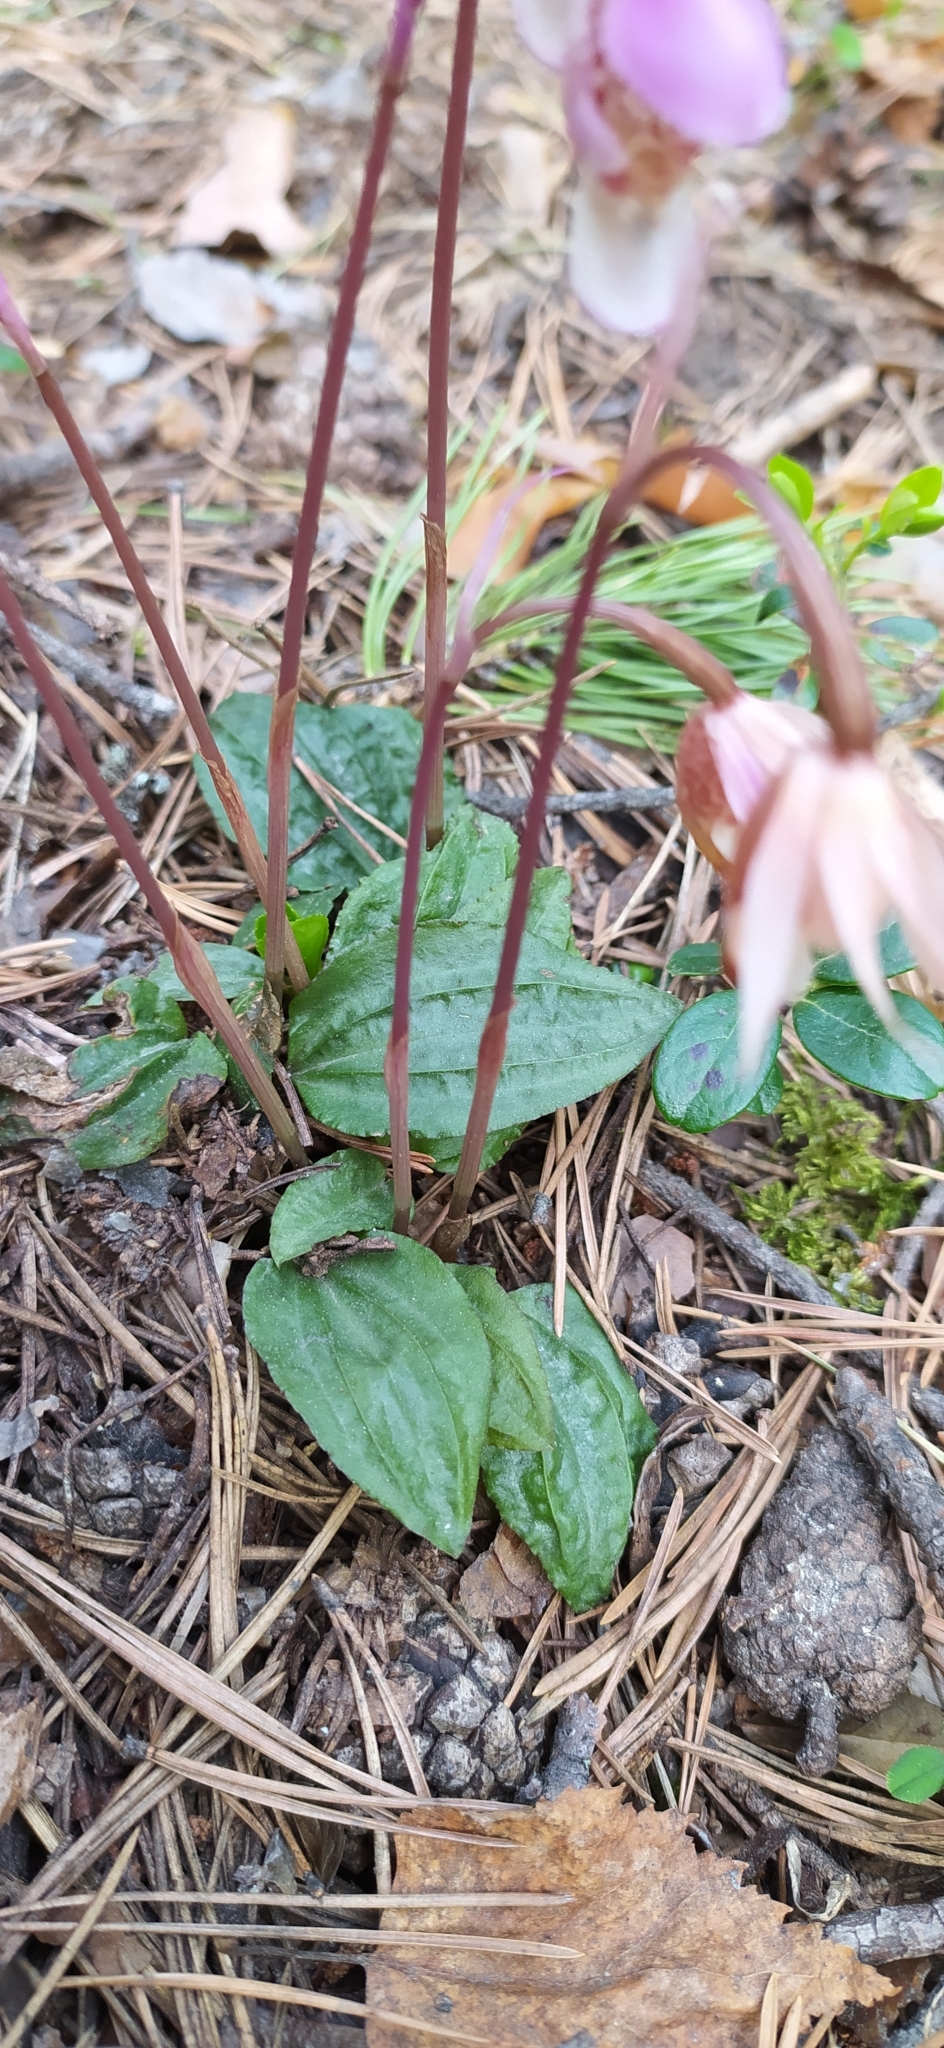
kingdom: Plantae
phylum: Tracheophyta
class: Liliopsida
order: Asparagales
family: Orchidaceae
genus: Calypso
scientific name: Calypso bulbosa
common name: Calypso
